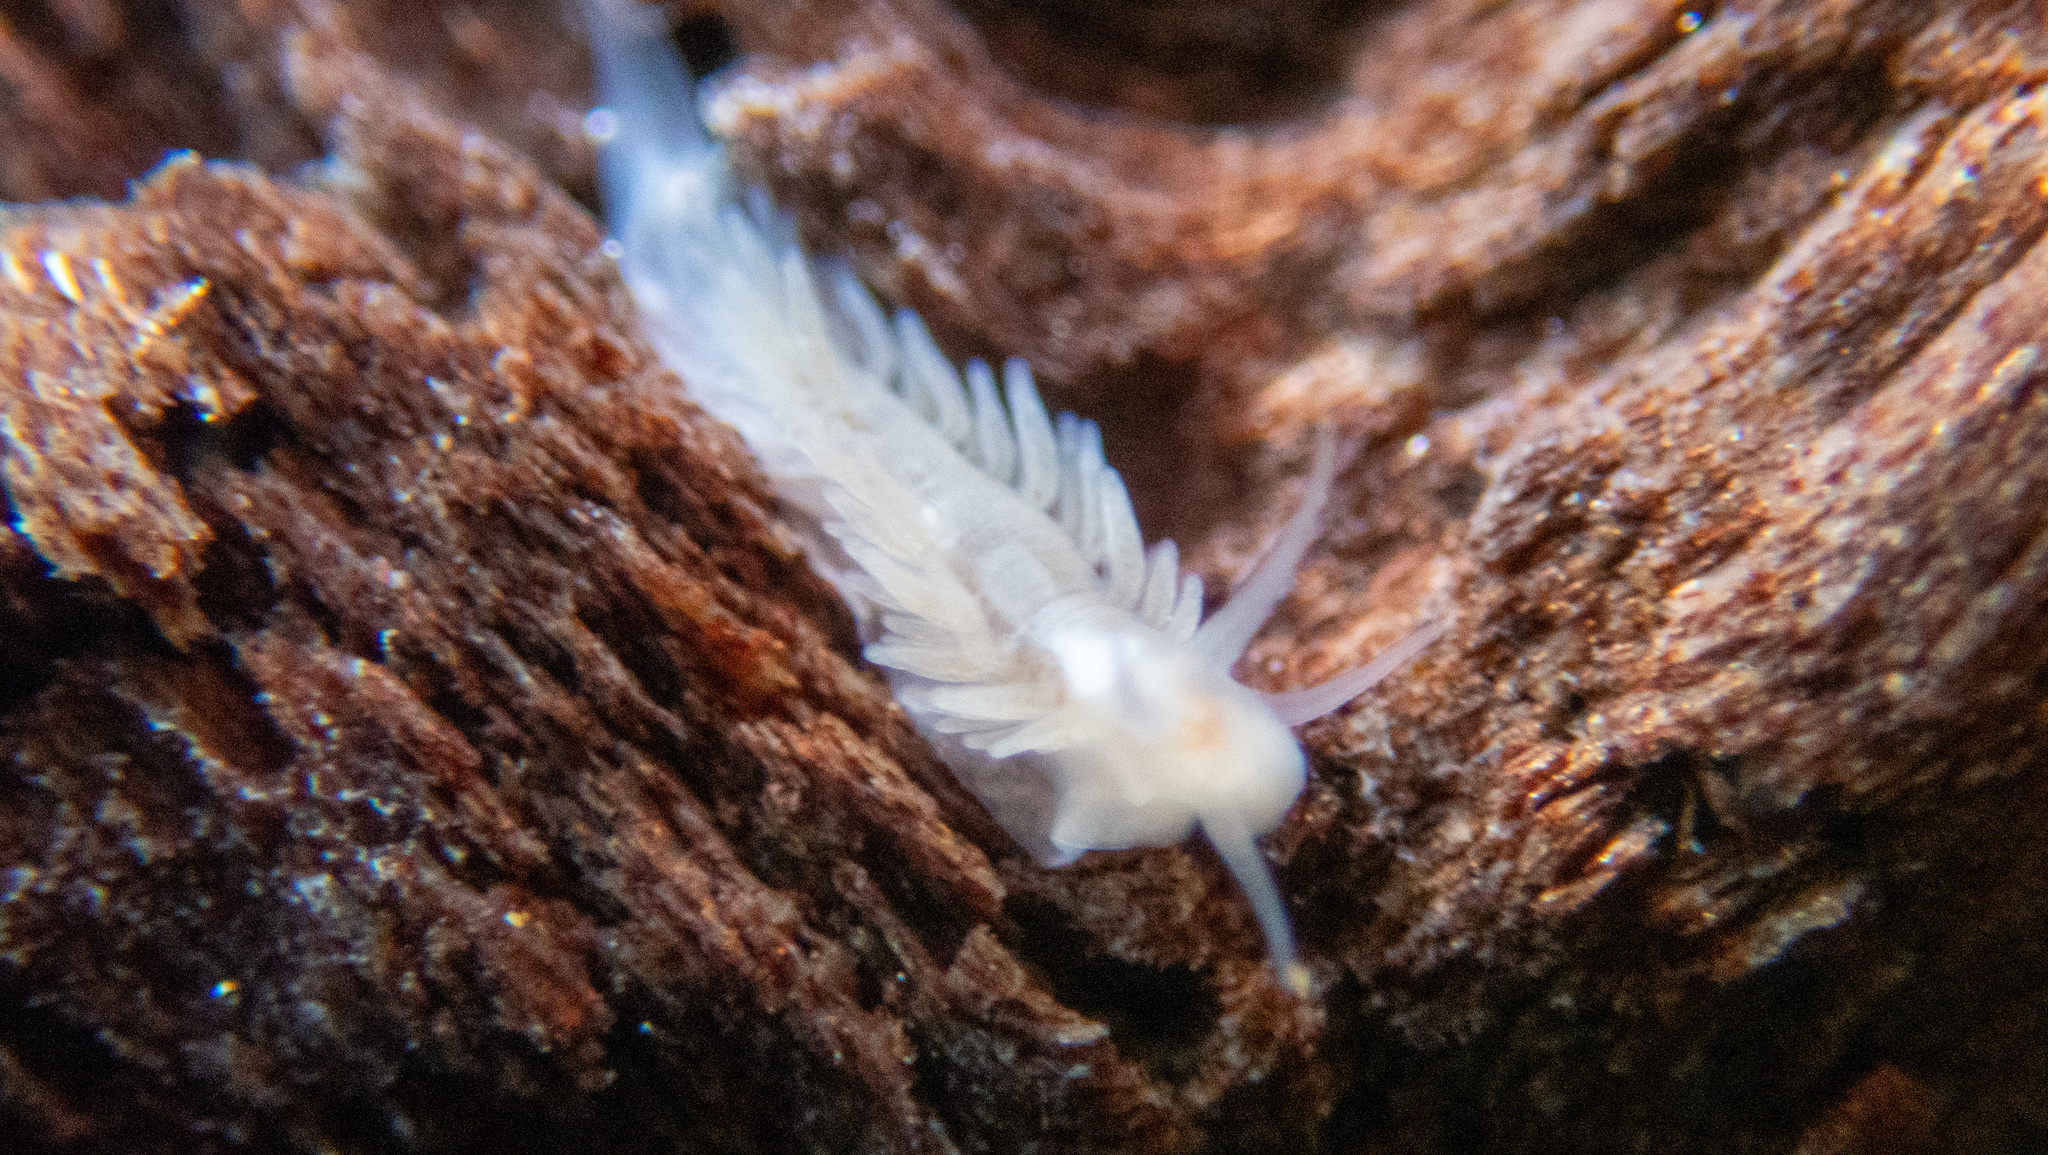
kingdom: Animalia
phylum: Mollusca
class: Gastropoda
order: Nudibranchia
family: Fionidae
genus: Fiona
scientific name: Fiona pinnata
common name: Fiona
